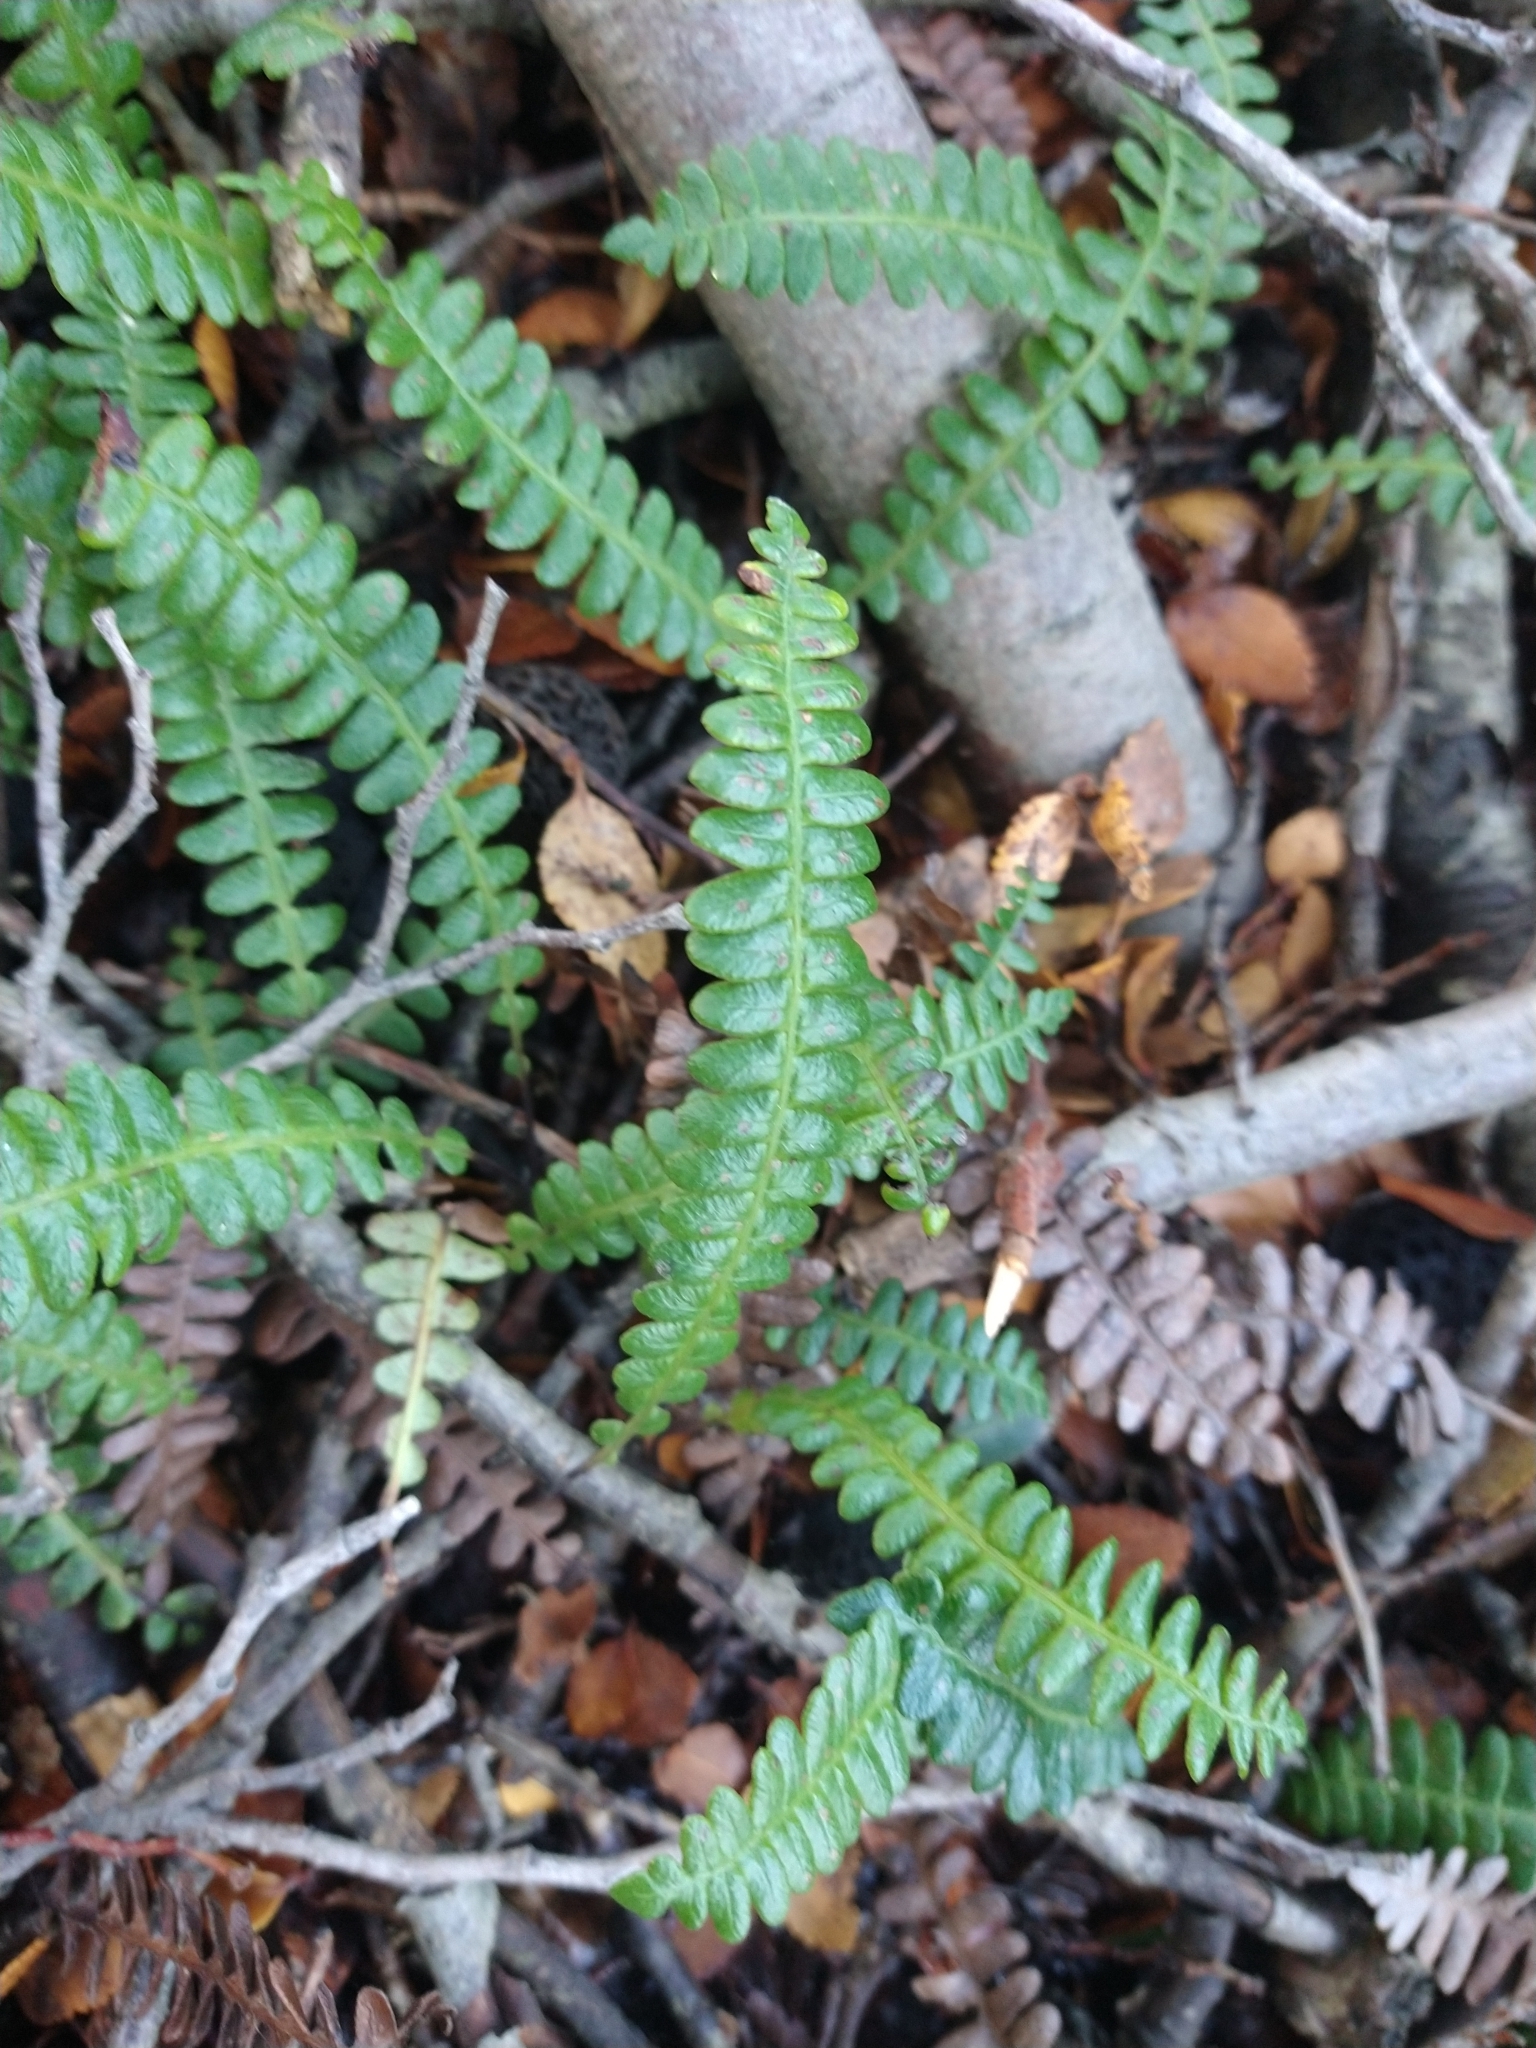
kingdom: Plantae
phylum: Tracheophyta
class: Polypodiopsida
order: Polypodiales
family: Blechnaceae
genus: Austroblechnum
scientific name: Austroblechnum penna-marina
